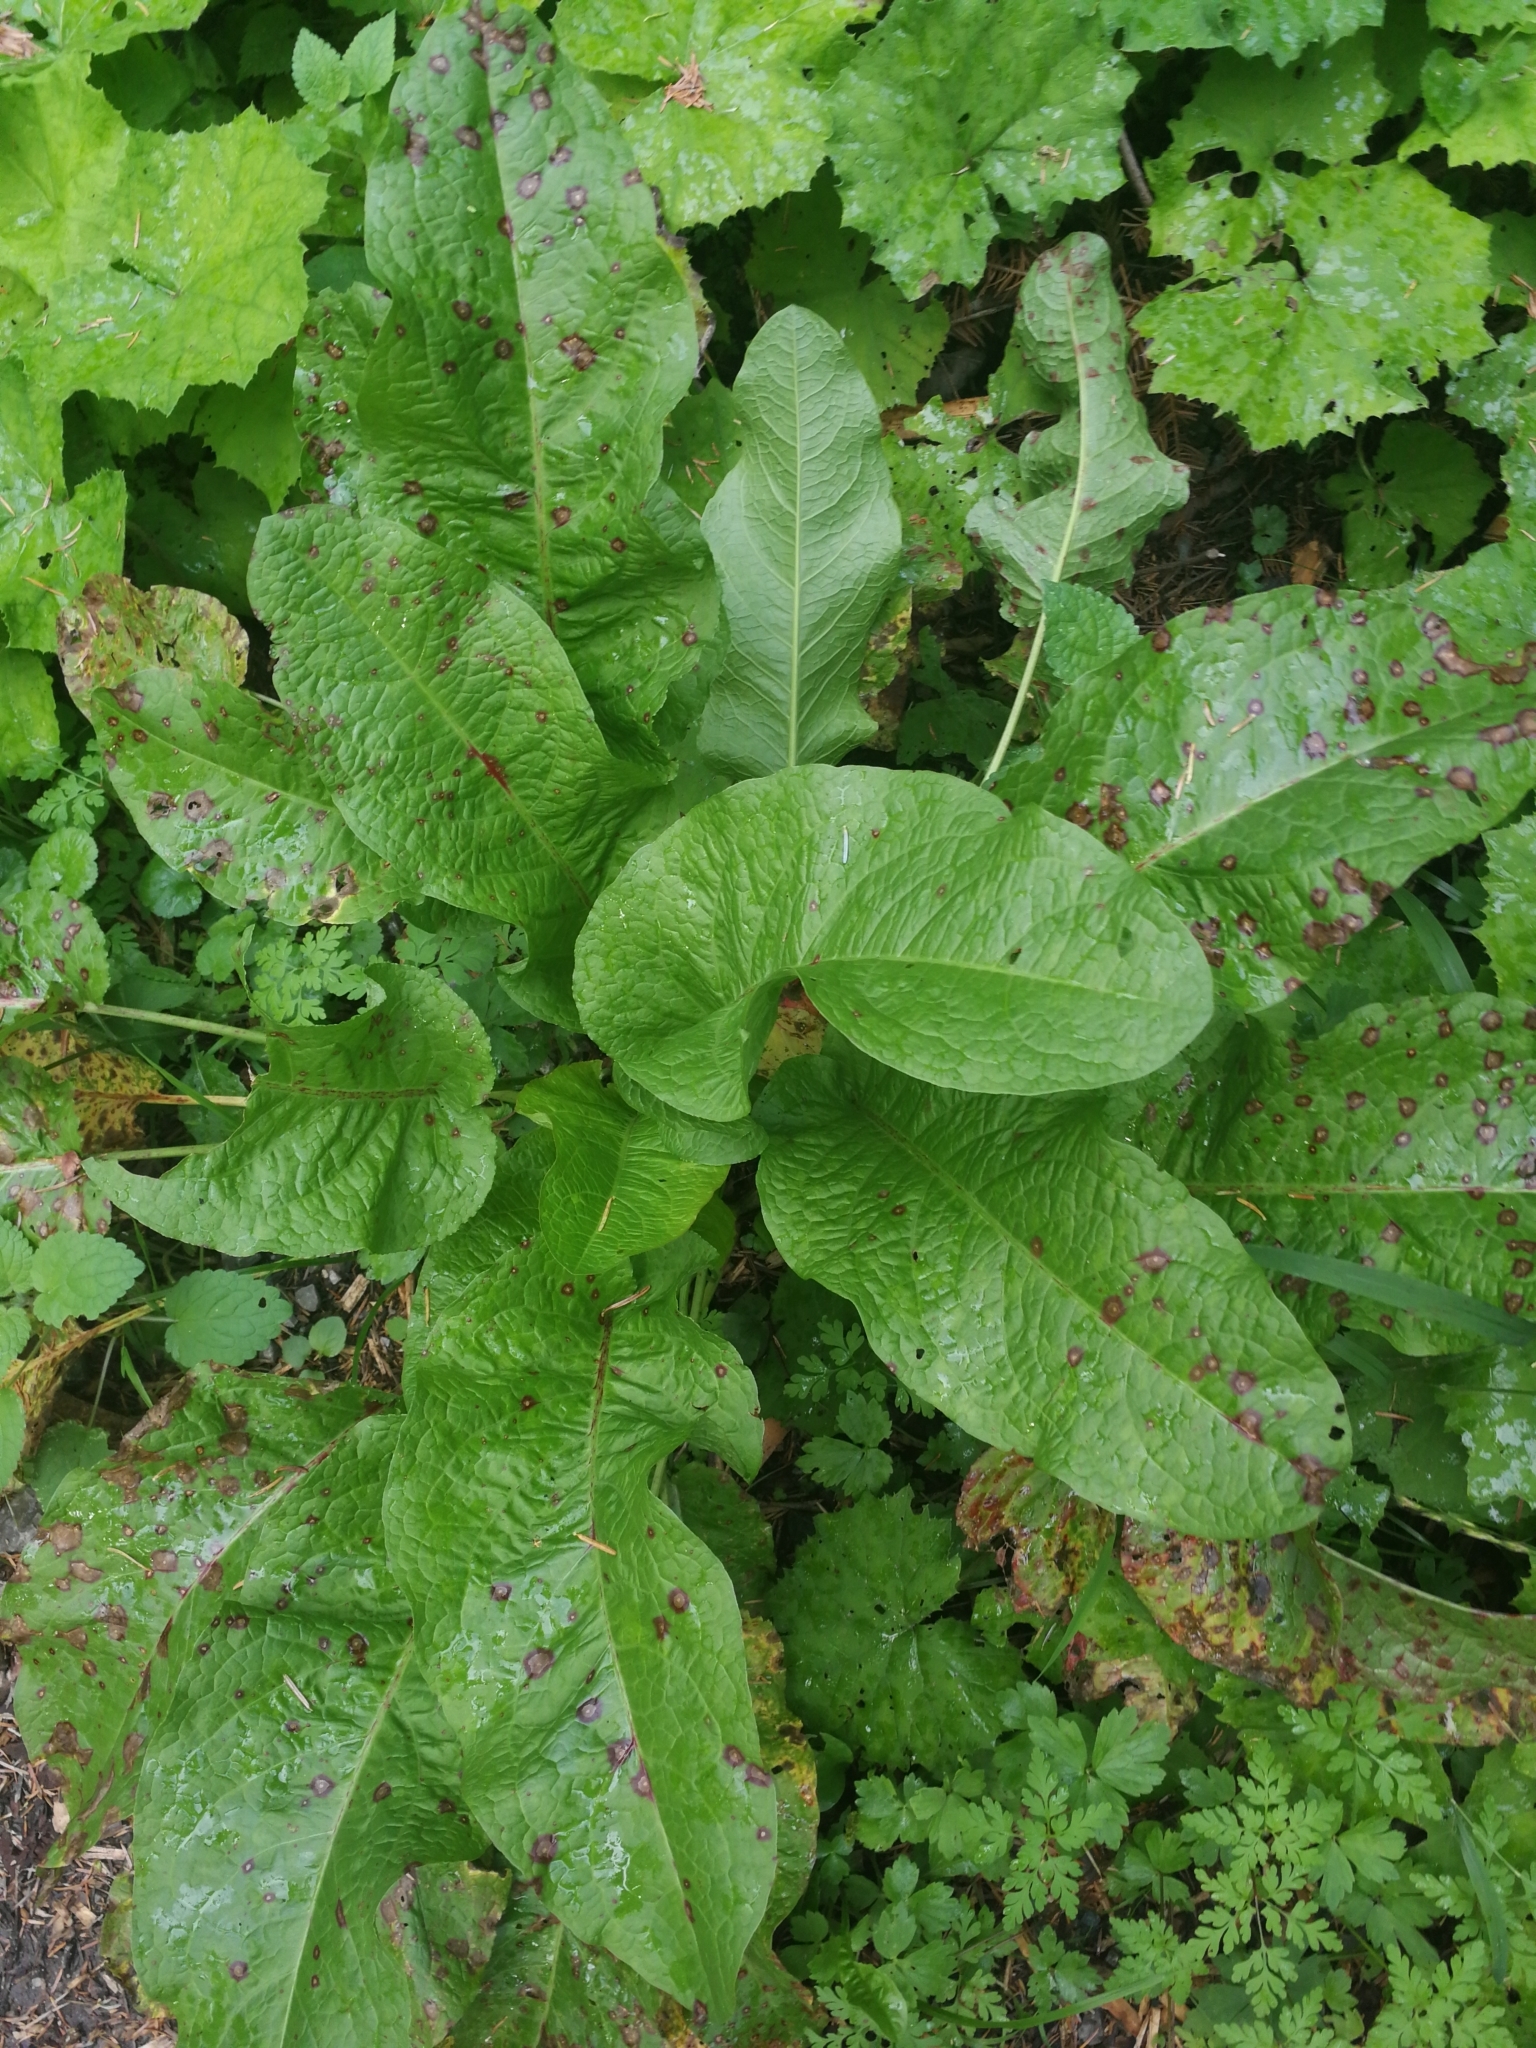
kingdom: Plantae
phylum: Tracheophyta
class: Magnoliopsida
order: Caryophyllales
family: Polygonaceae
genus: Rumex
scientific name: Rumex obtusifolius
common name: Bitter dock
